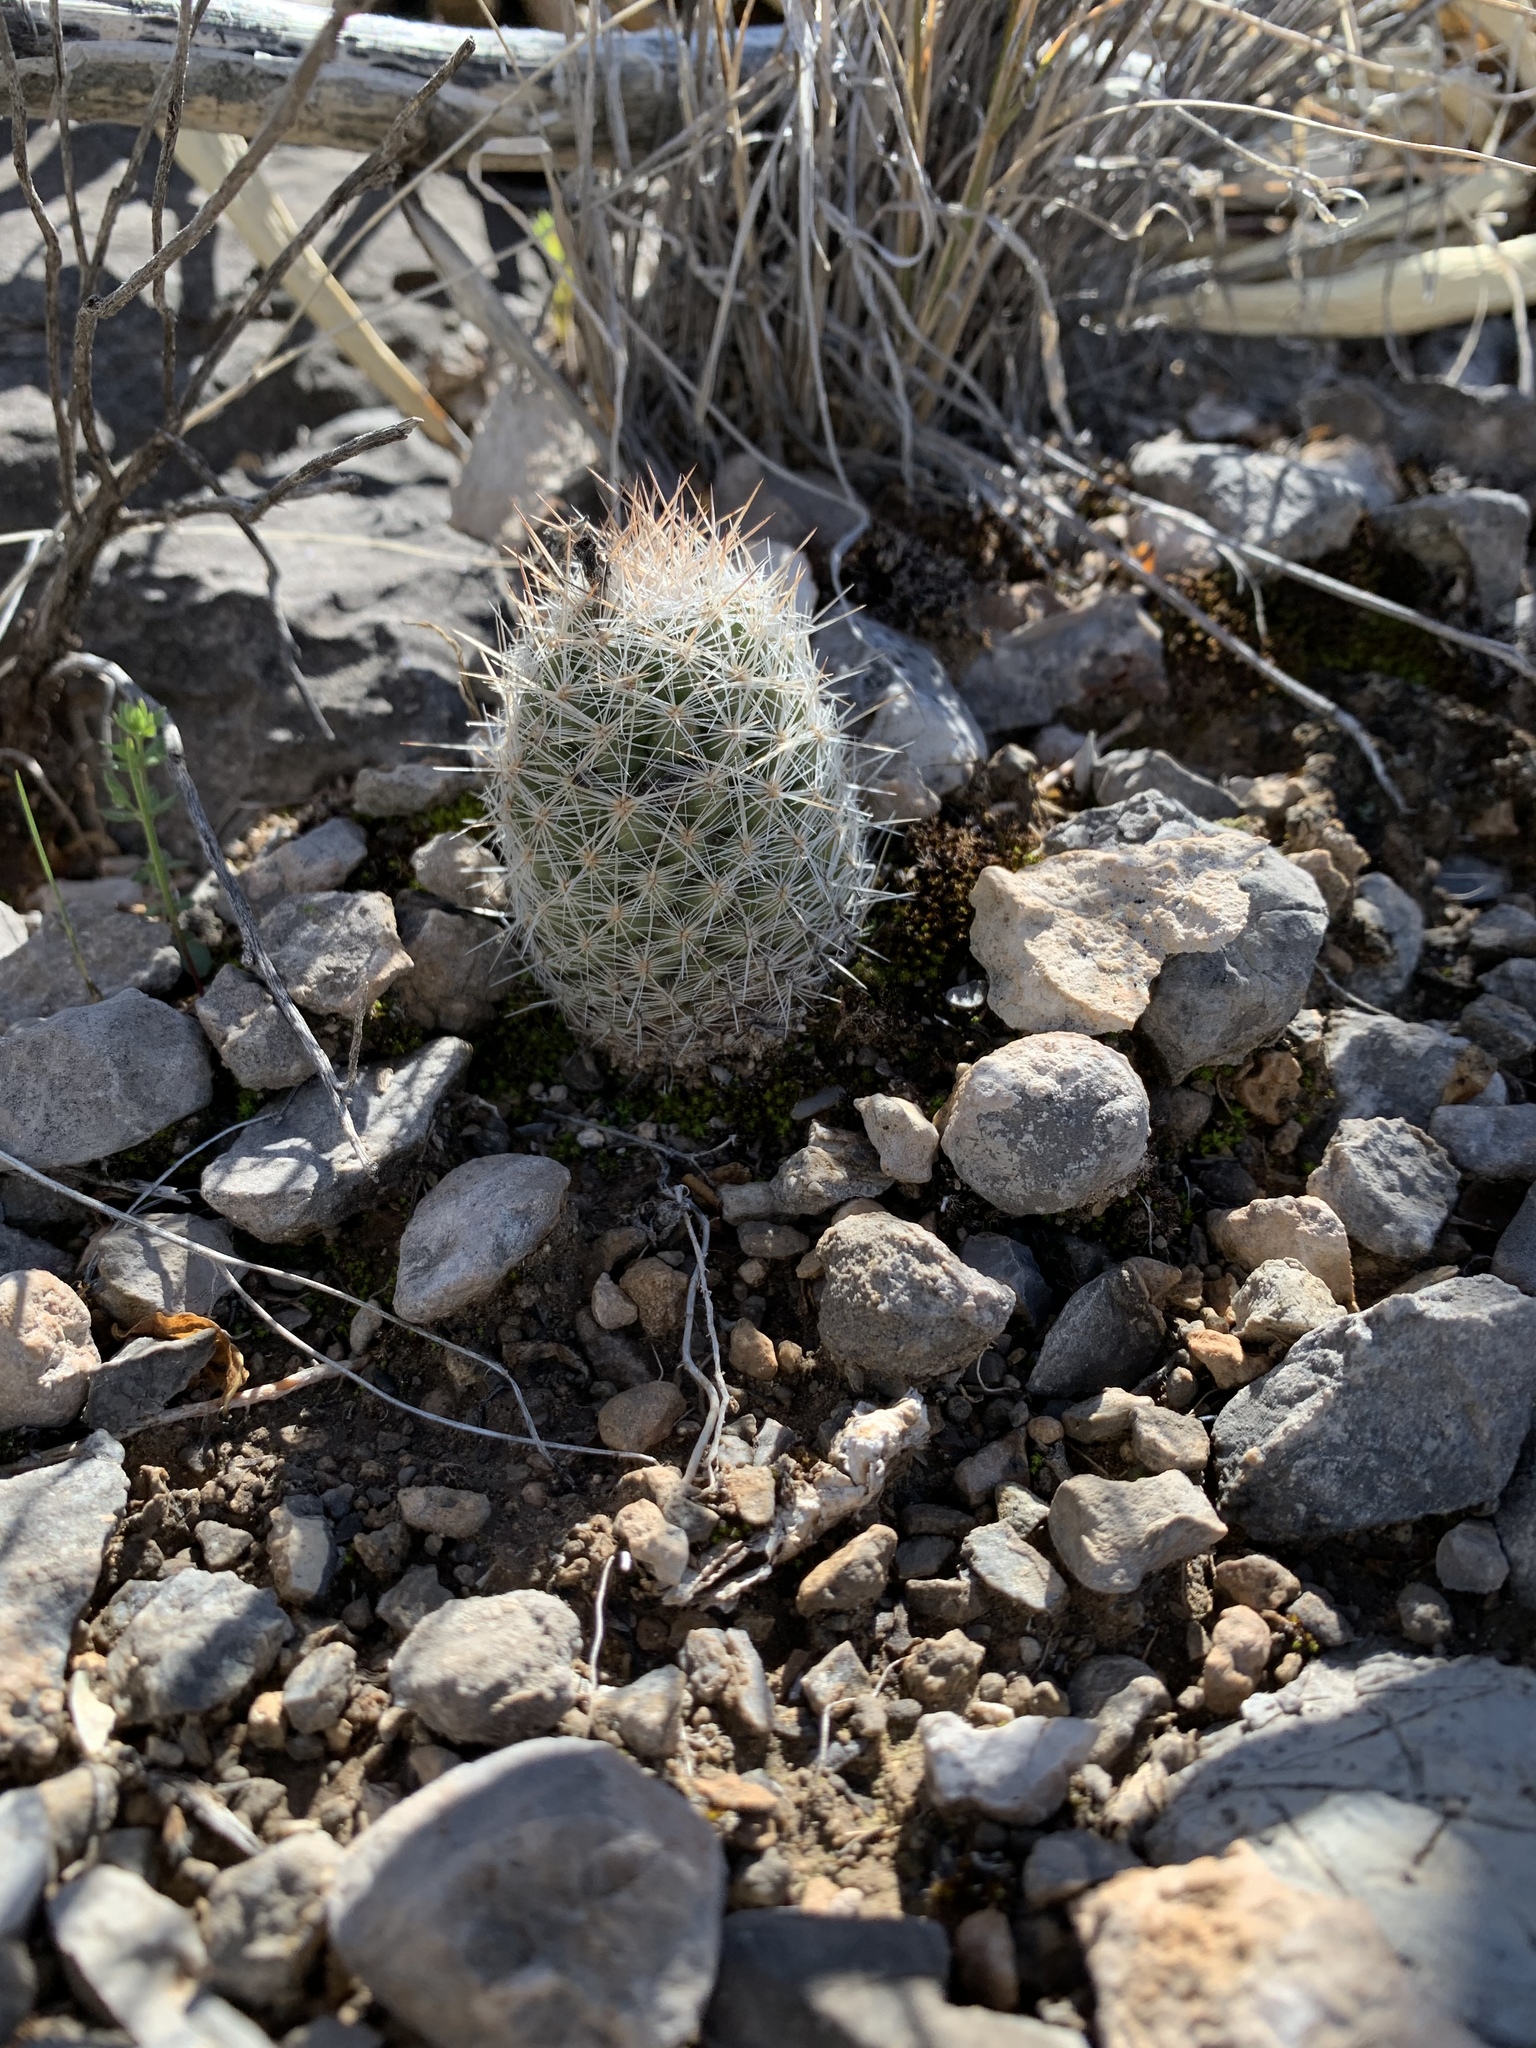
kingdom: Plantae
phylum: Tracheophyta
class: Magnoliopsida
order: Caryophyllales
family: Cactaceae
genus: Pelecyphora
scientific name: Pelecyphora tuberculosa
